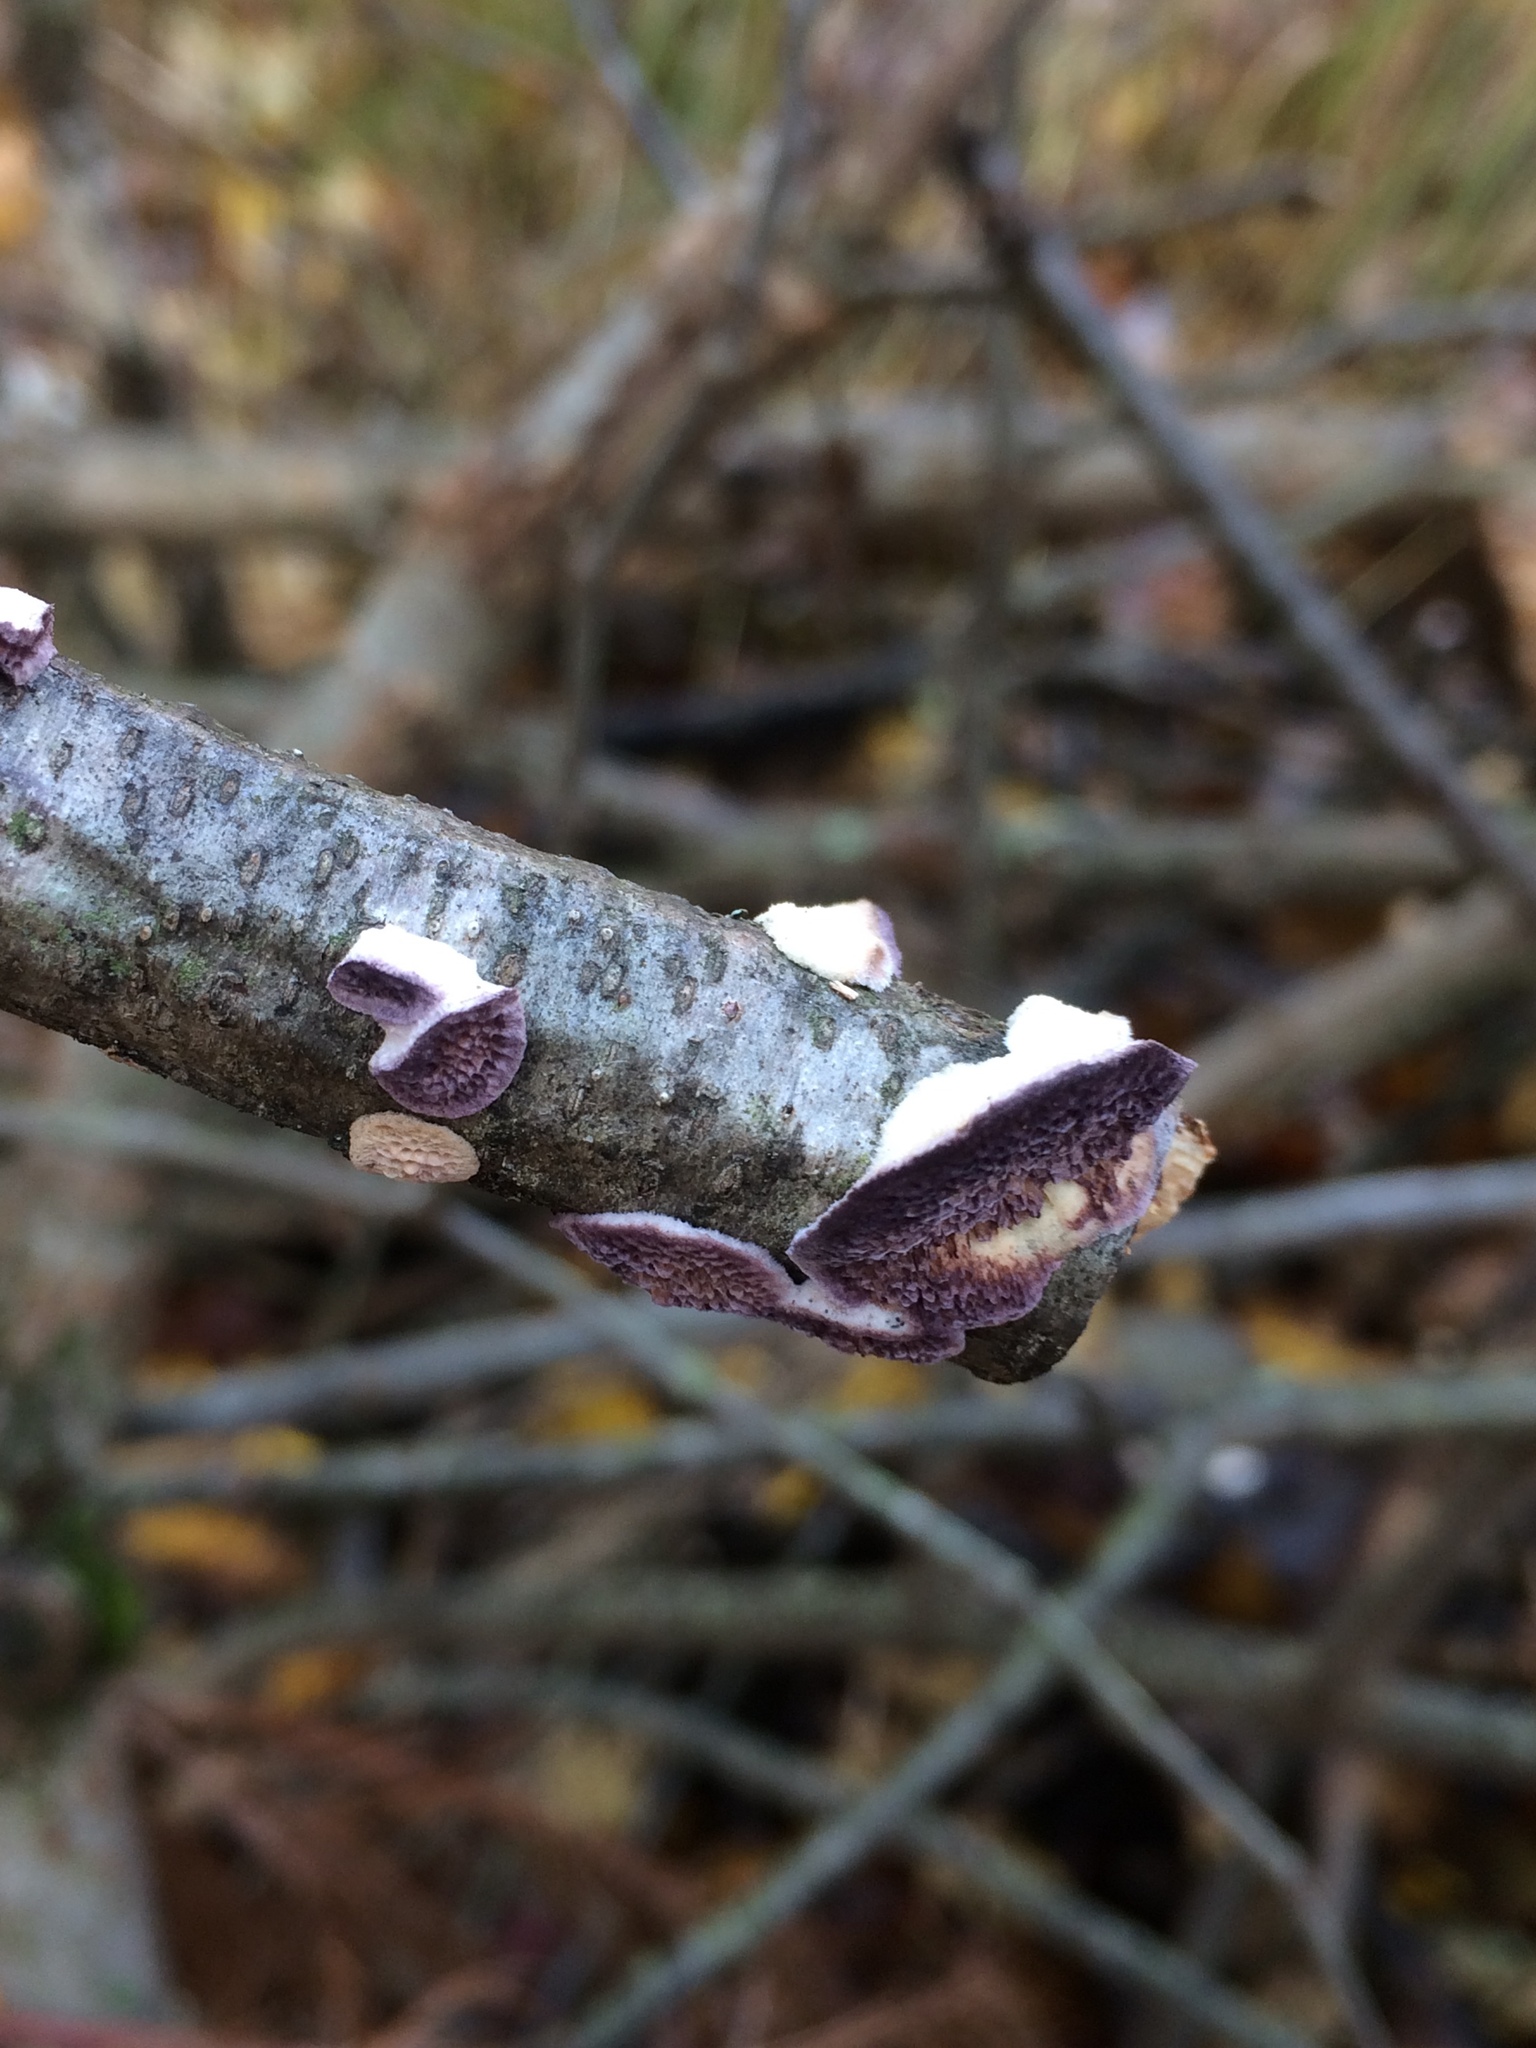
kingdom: Fungi
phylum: Basidiomycota
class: Agaricomycetes
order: Hymenochaetales
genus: Trichaptum
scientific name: Trichaptum biforme
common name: Violet-toothed polypore
